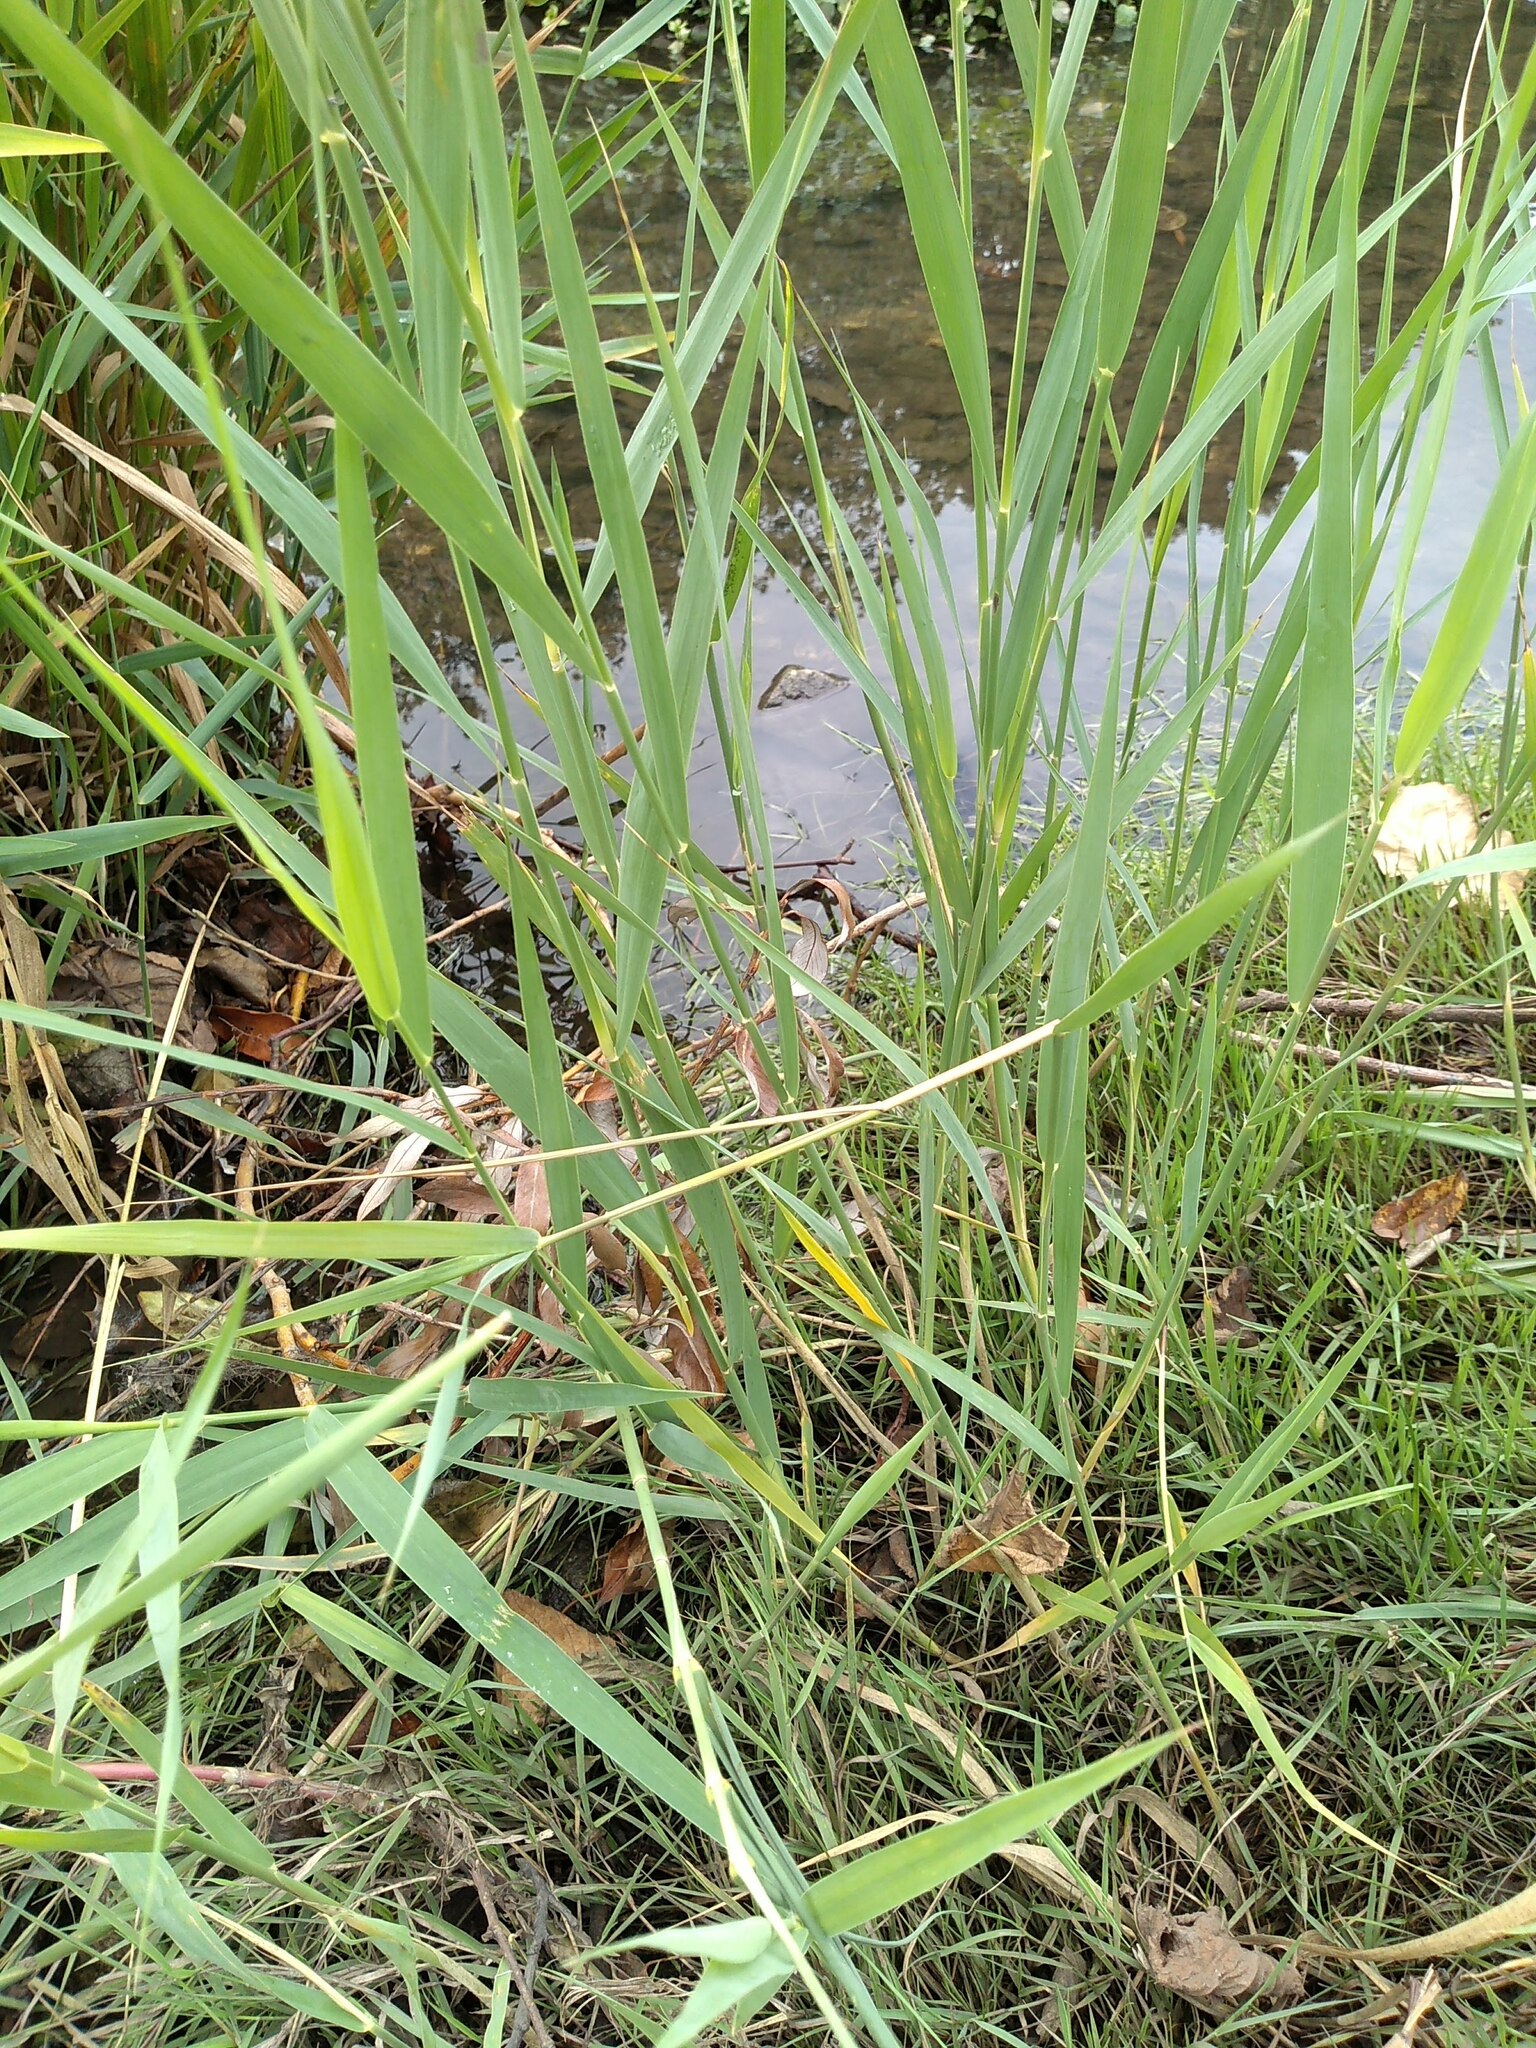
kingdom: Plantae
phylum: Tracheophyta
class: Liliopsida
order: Poales
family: Poaceae
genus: Phragmites
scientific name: Phragmites australis
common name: Common reed
